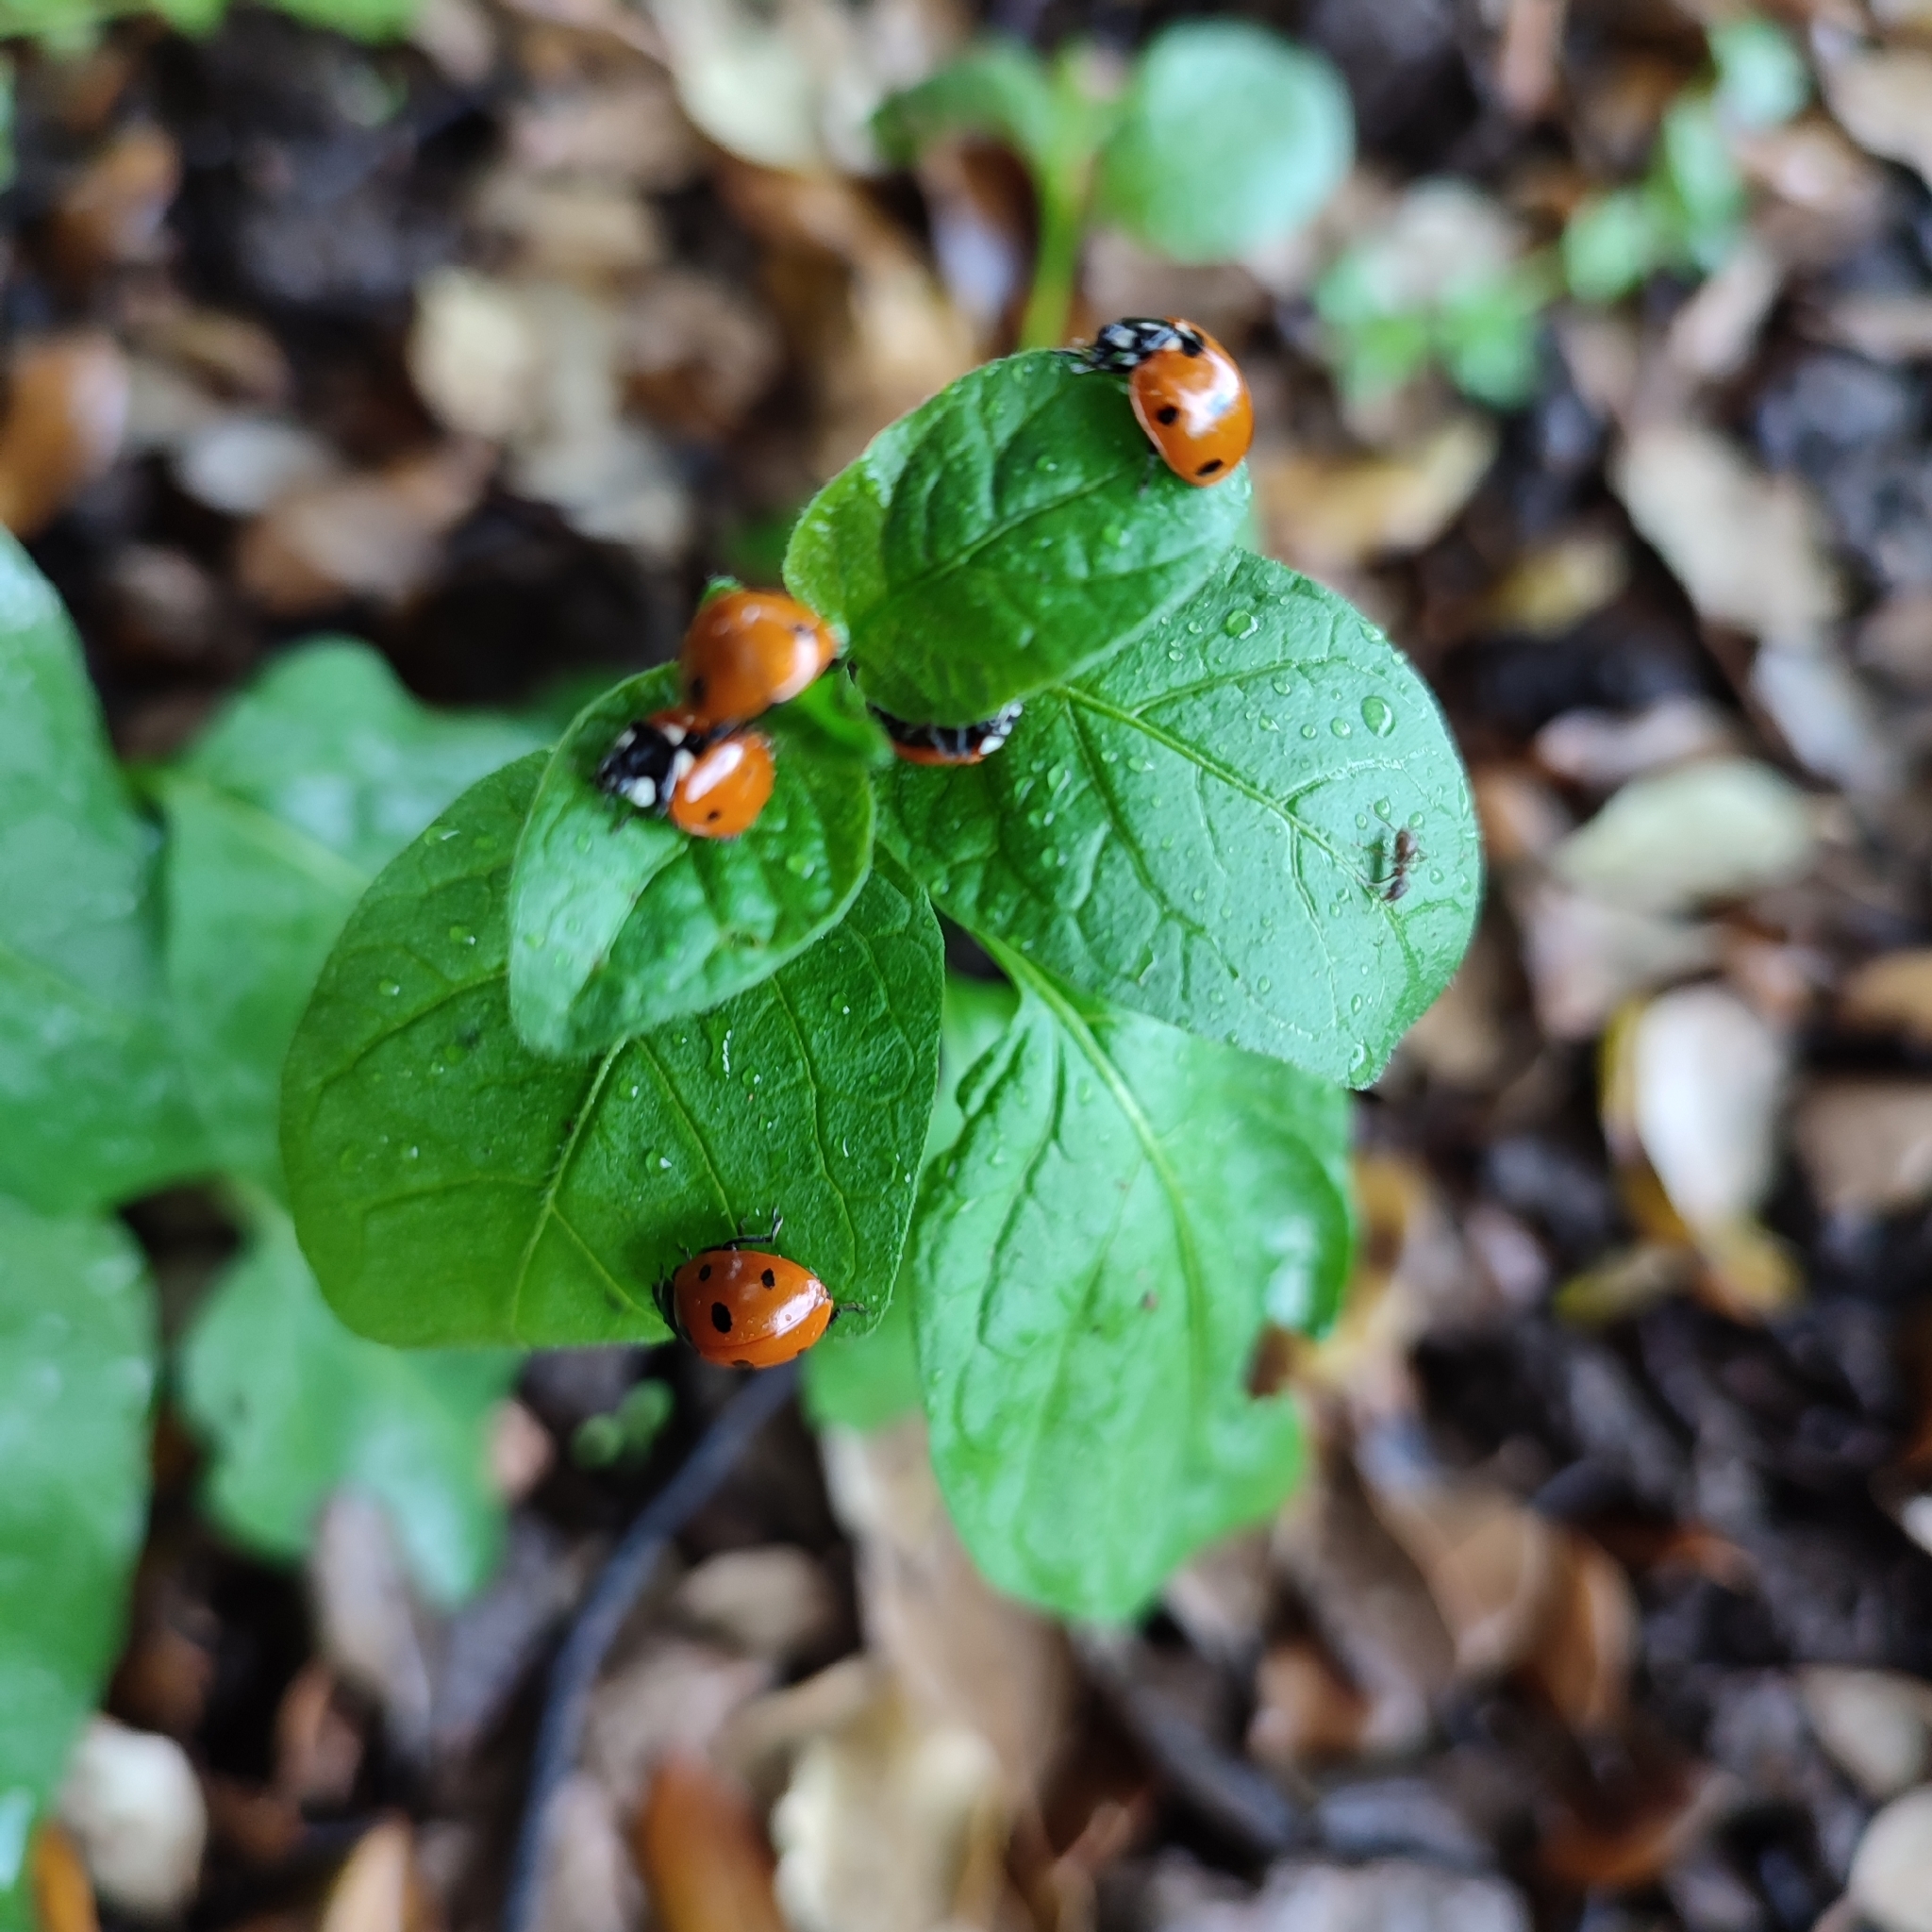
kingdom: Animalia
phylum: Arthropoda
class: Insecta
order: Coleoptera
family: Coccinellidae
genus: Coccinella
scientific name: Coccinella septempunctata
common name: Sevenspotted lady beetle
